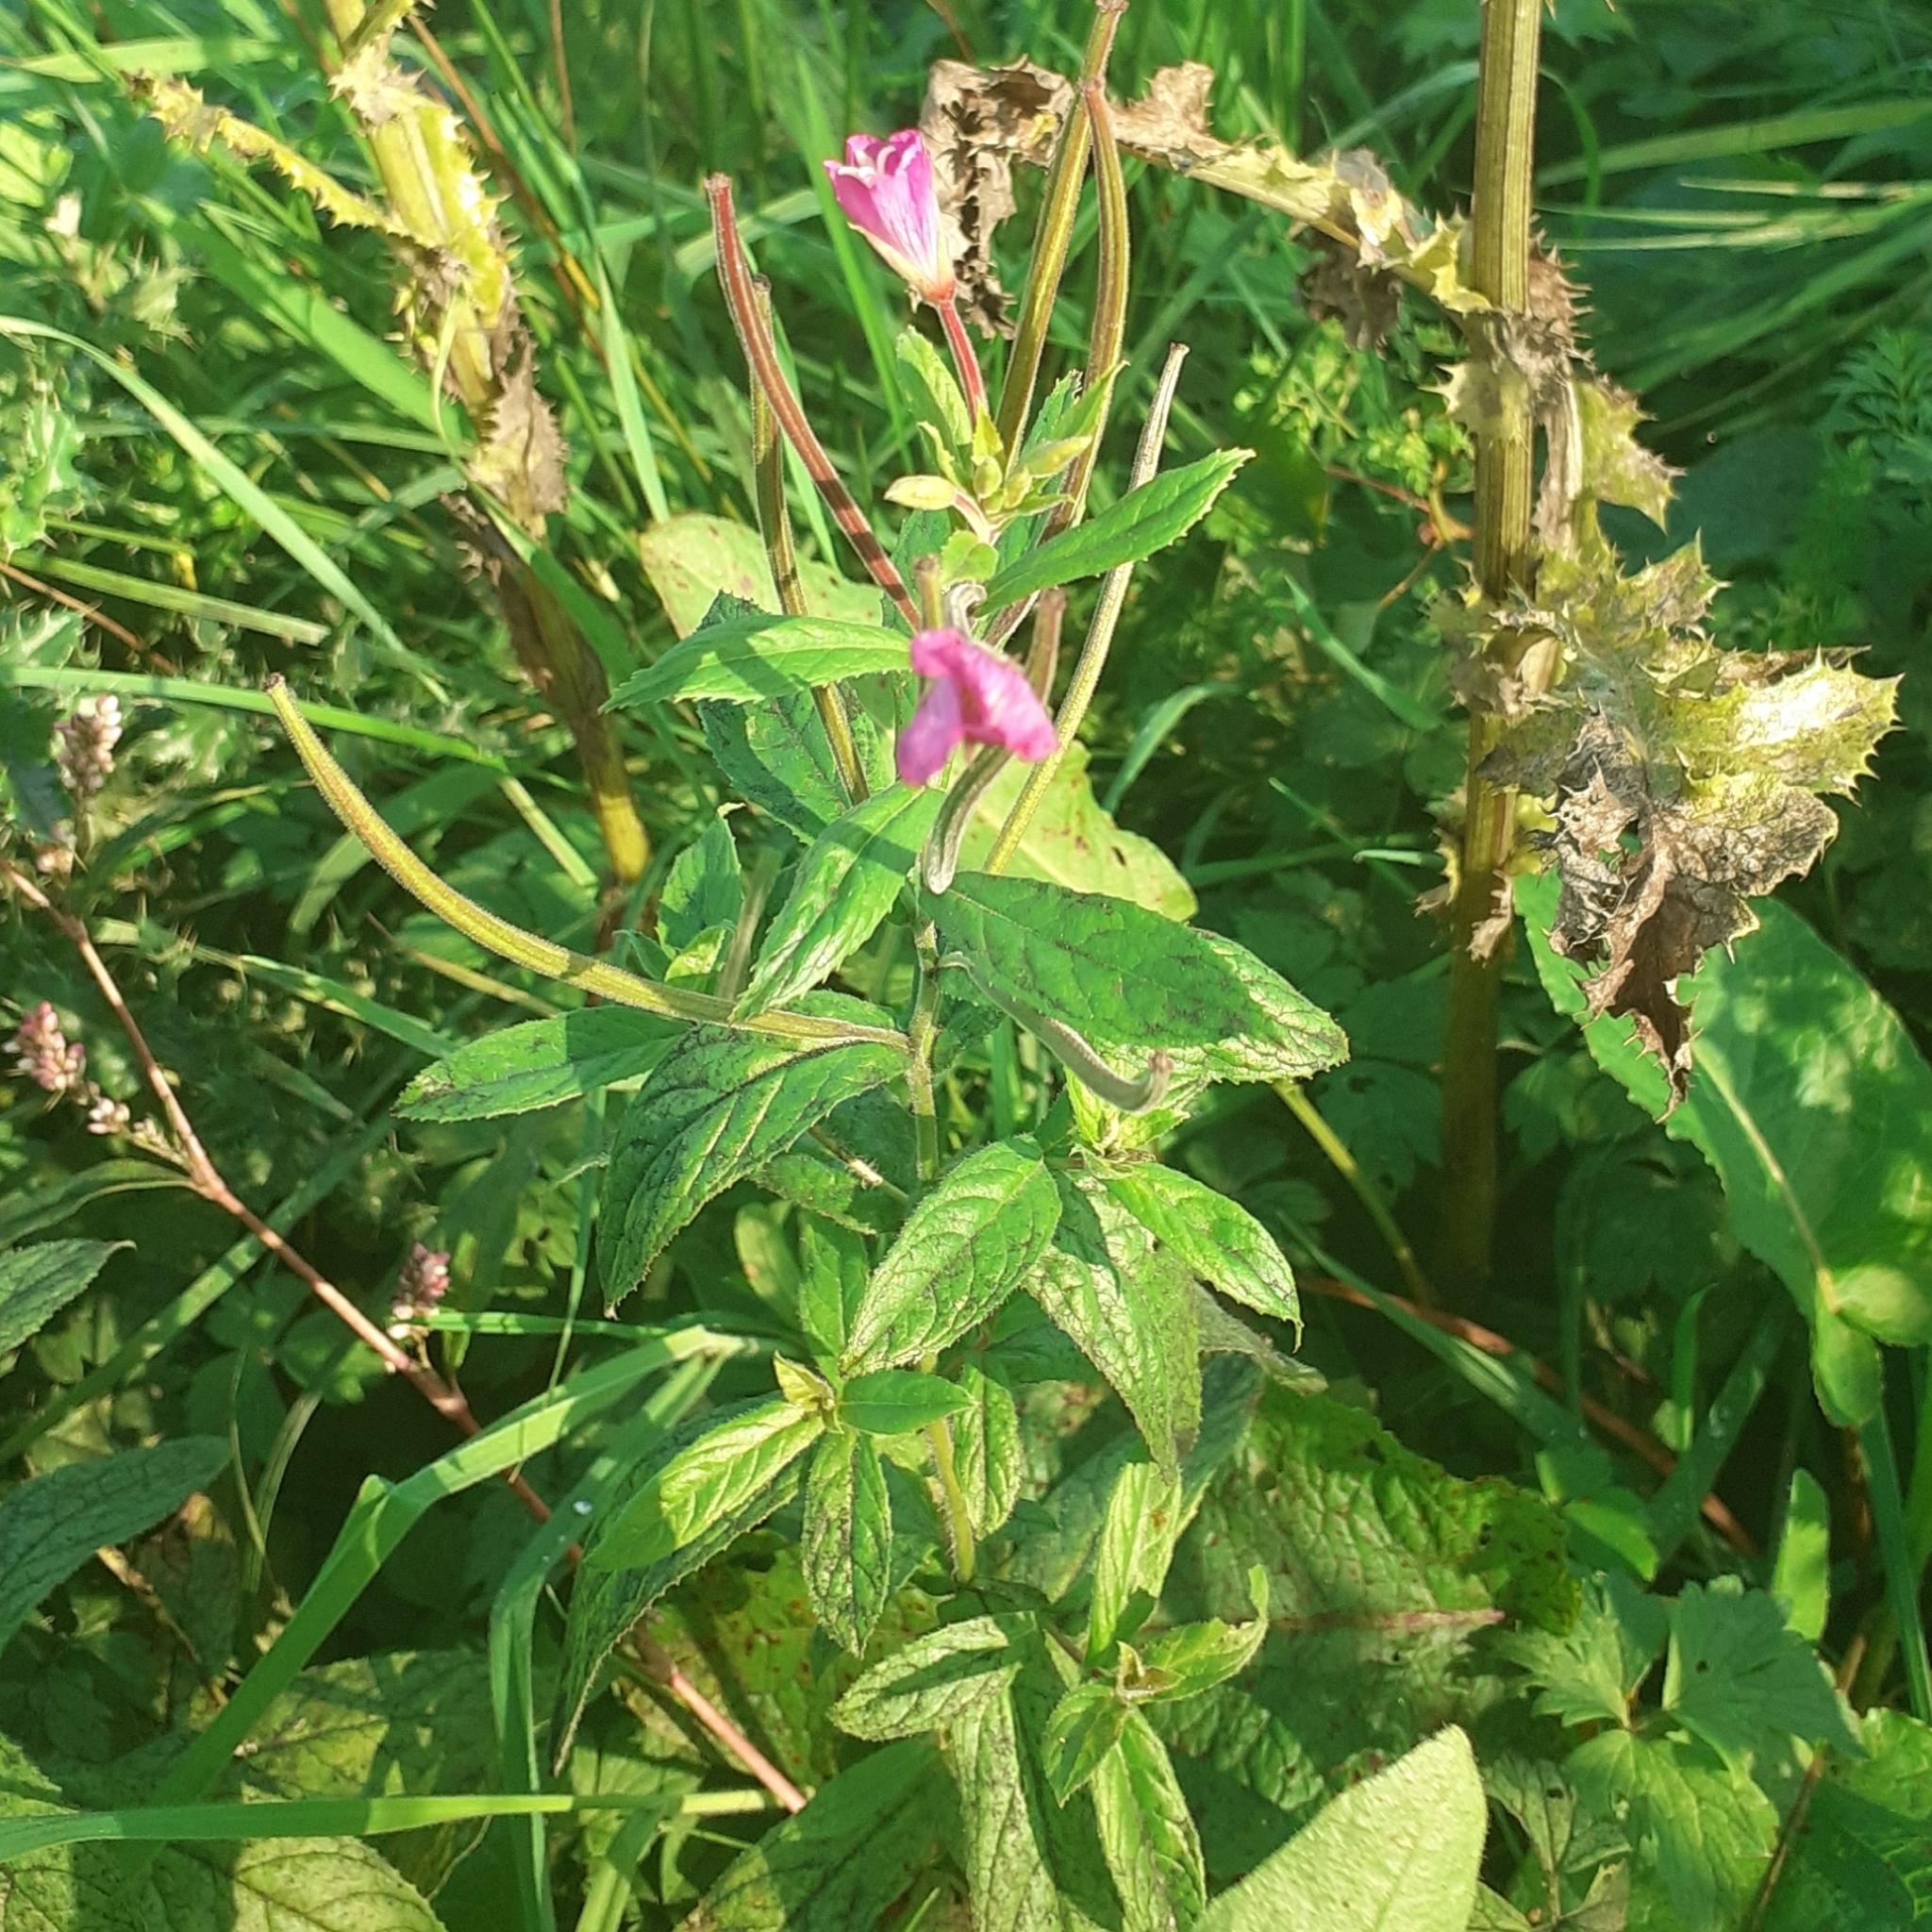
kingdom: Plantae
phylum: Tracheophyta
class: Magnoliopsida
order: Myrtales
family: Onagraceae
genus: Epilobium
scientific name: Epilobium hirsutum
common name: Great willowherb
